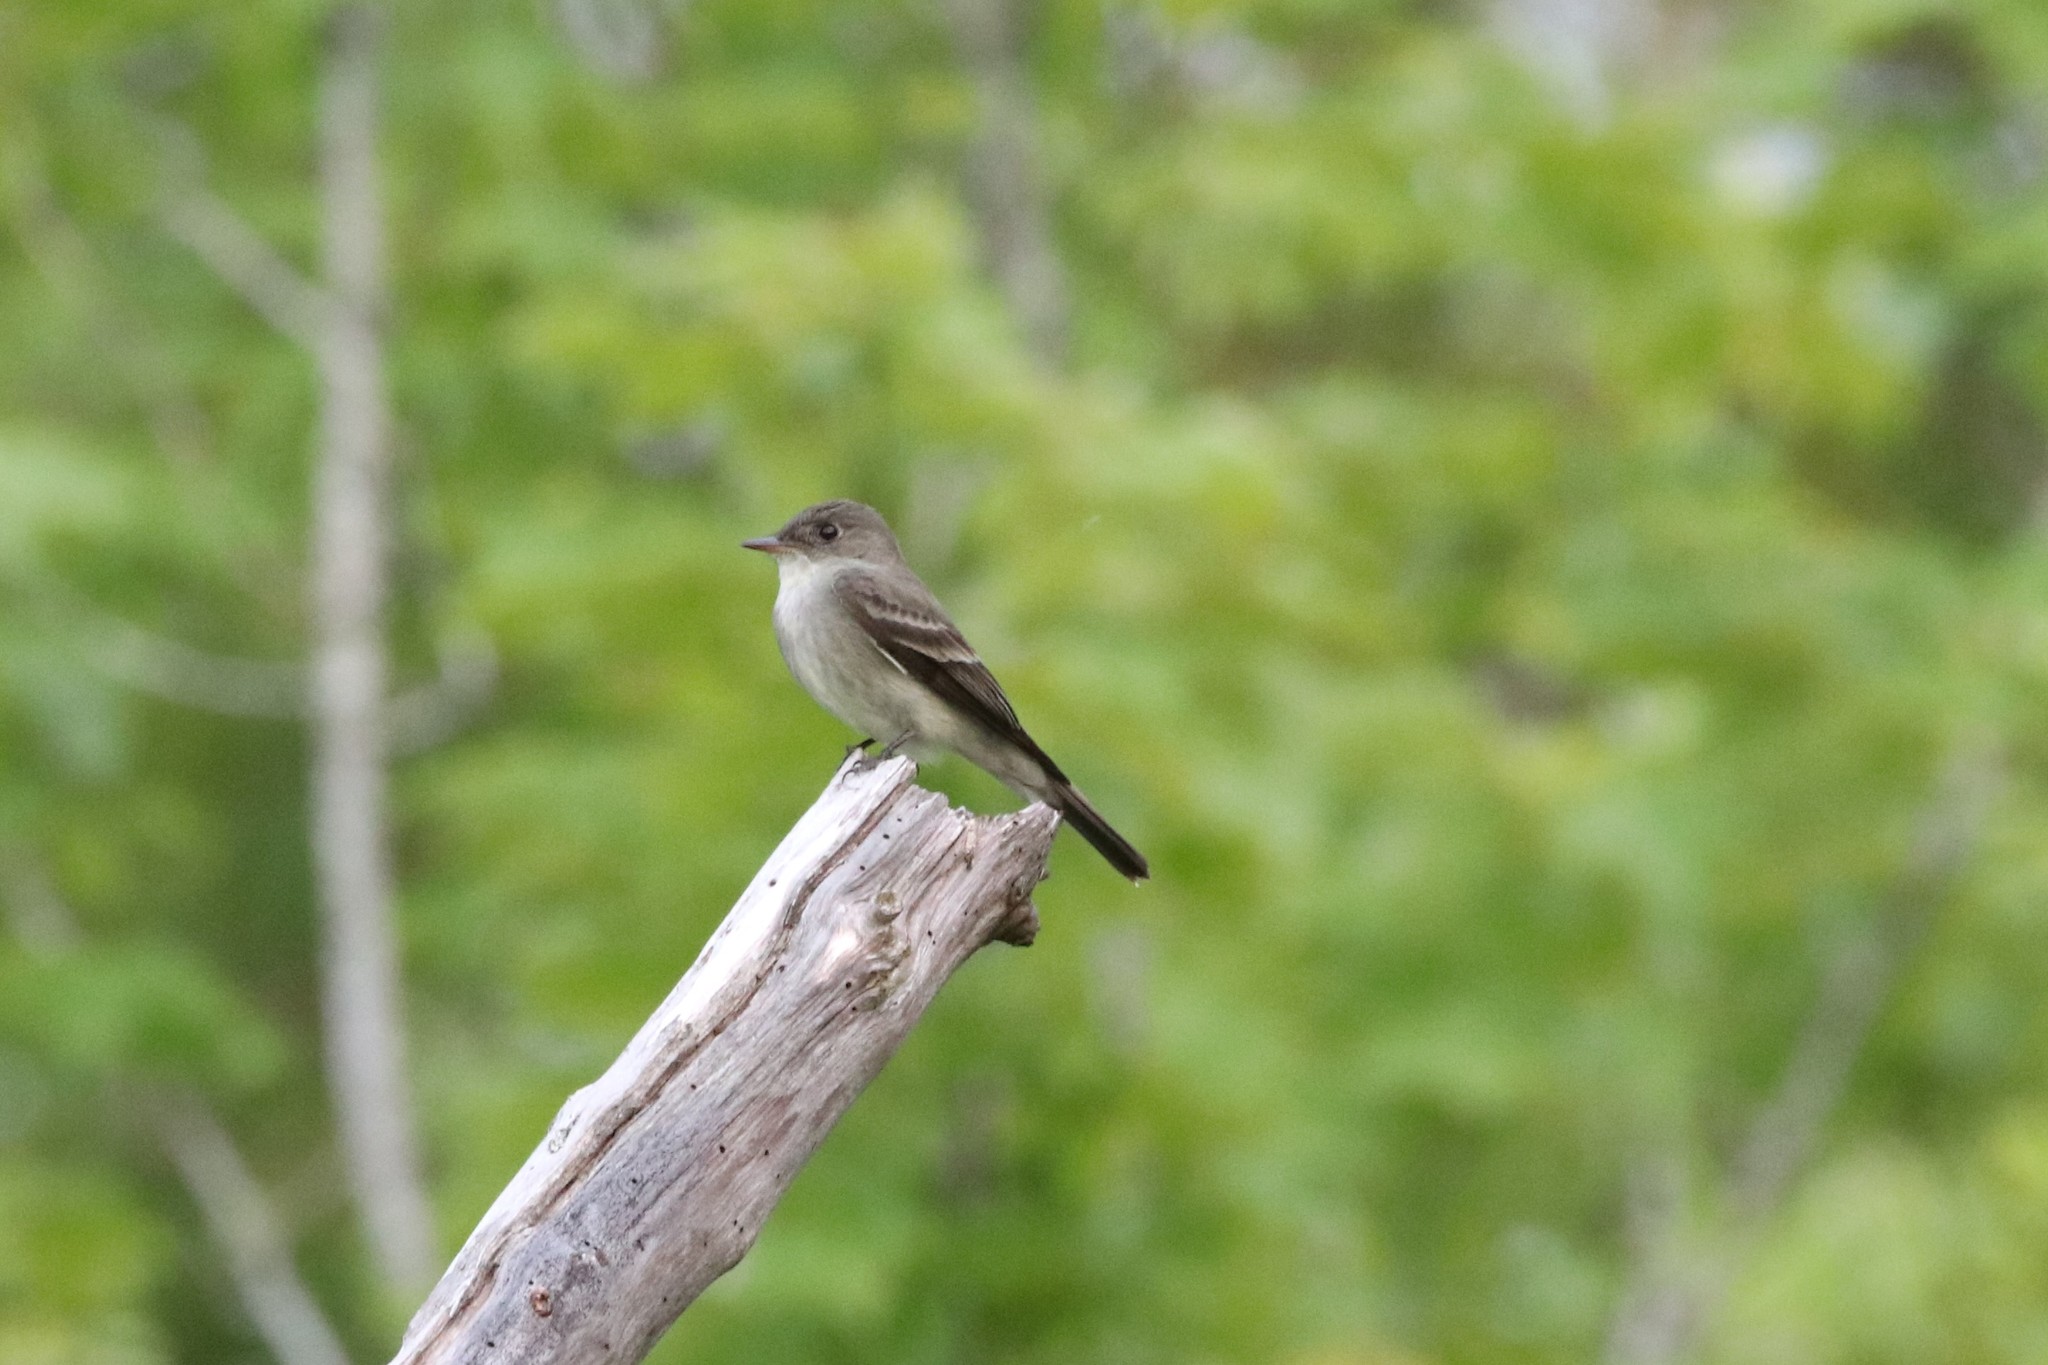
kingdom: Animalia
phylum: Chordata
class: Aves
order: Passeriformes
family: Tyrannidae
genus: Contopus
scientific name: Contopus virens
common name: Eastern wood-pewee
